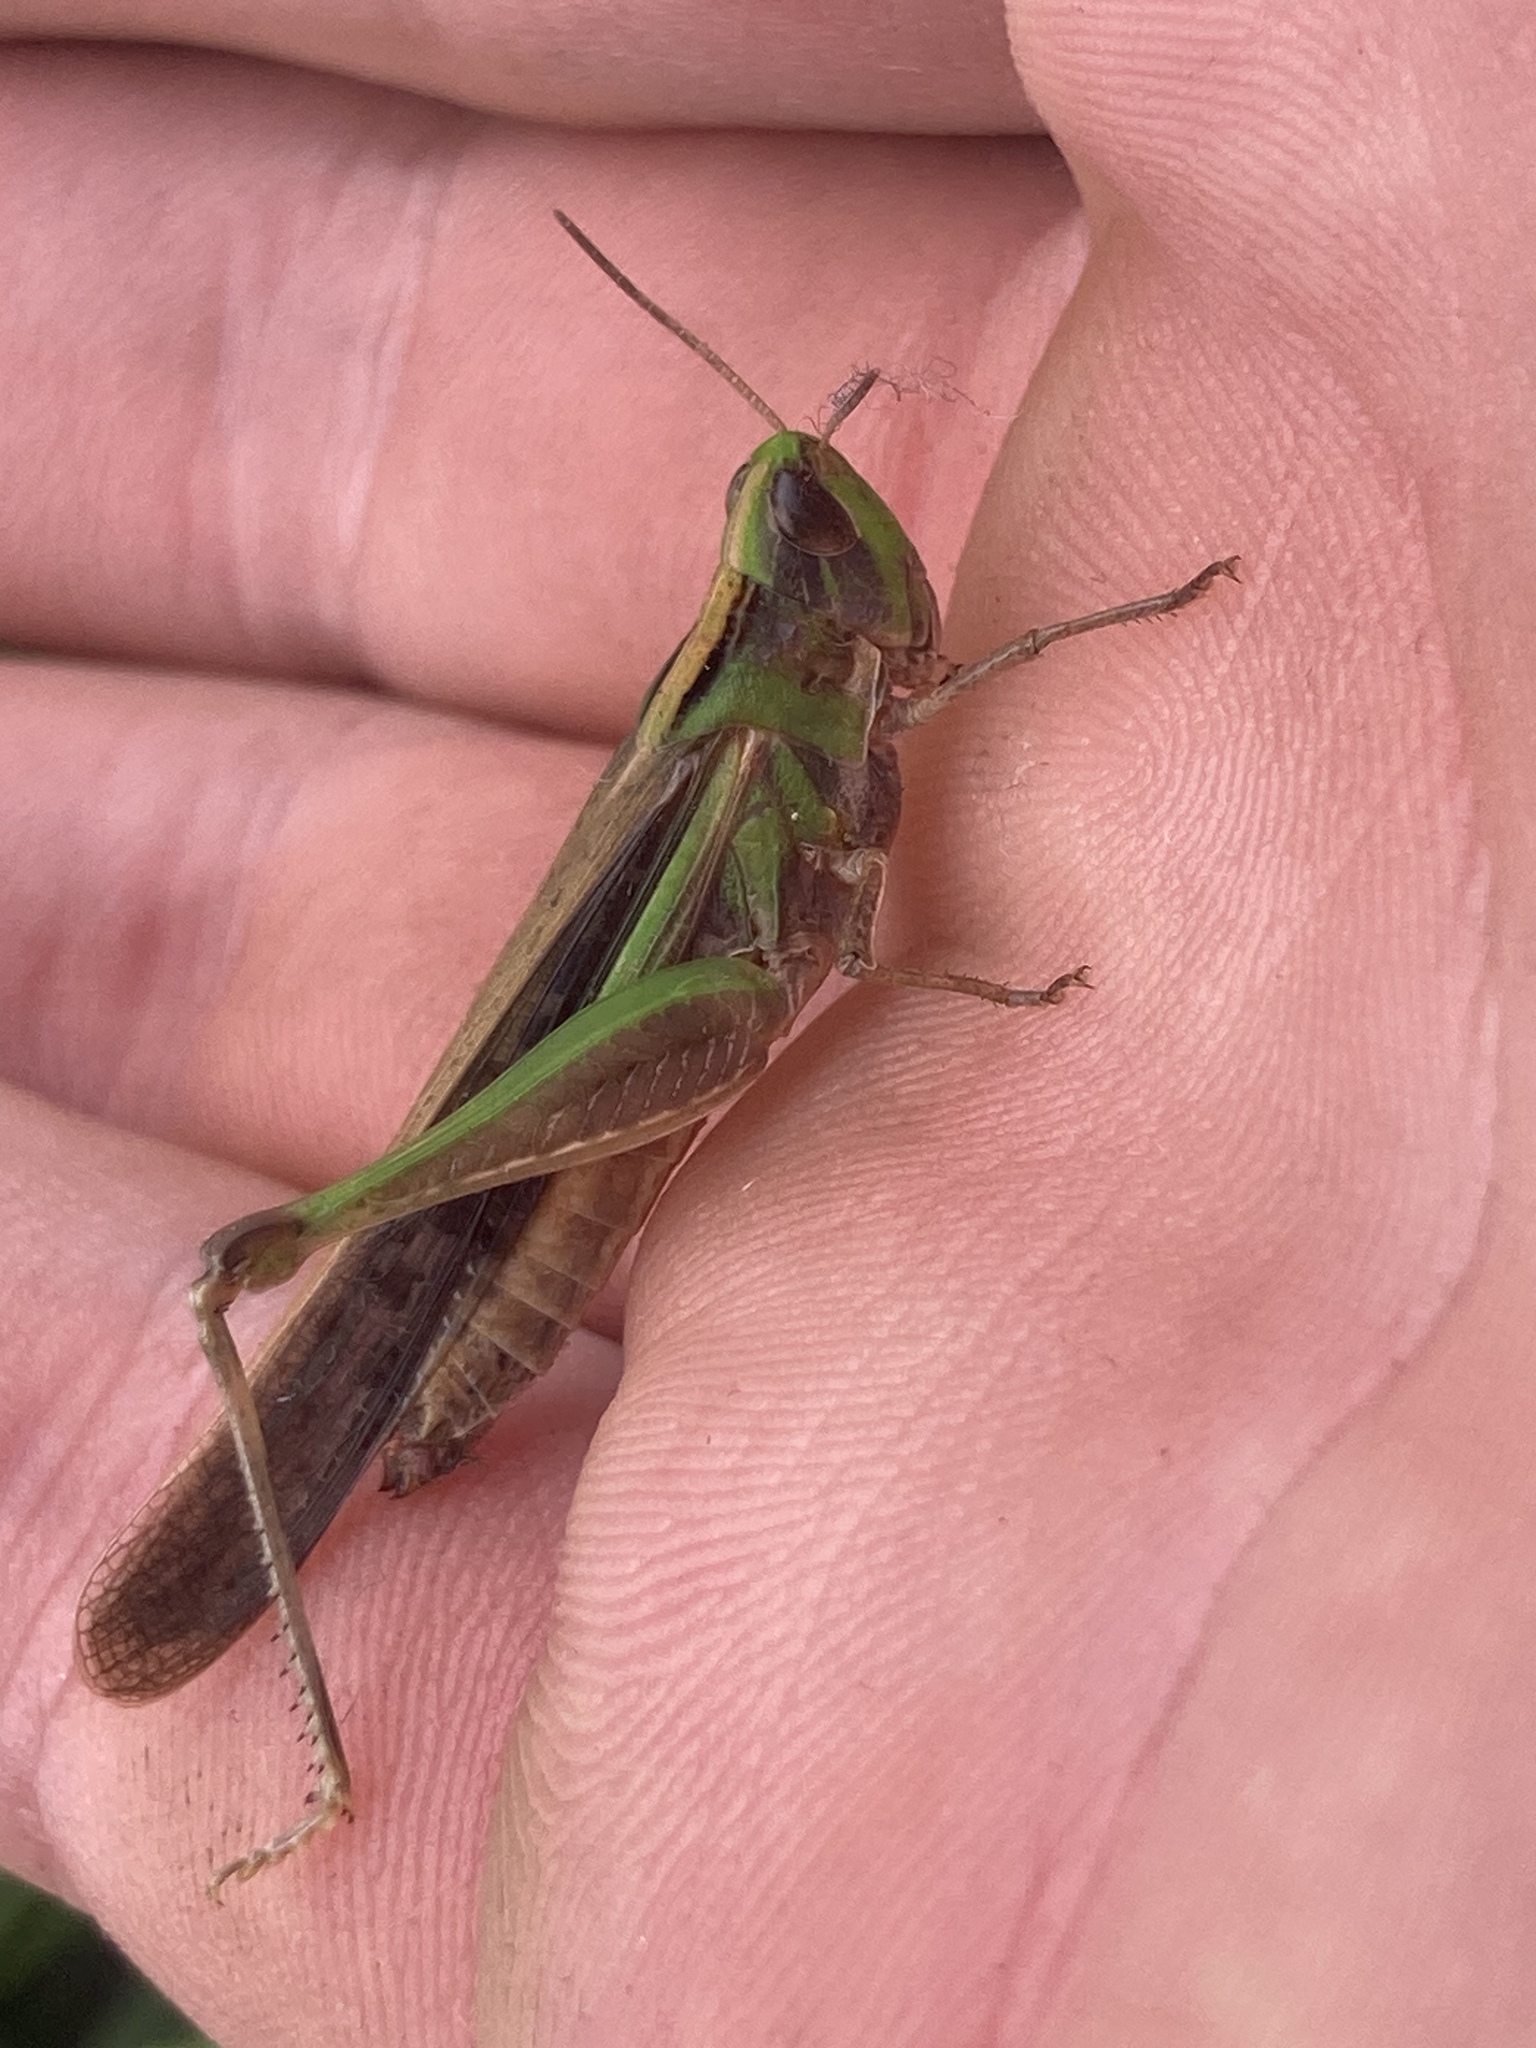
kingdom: Animalia
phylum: Arthropoda
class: Insecta
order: Orthoptera
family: Acrididae
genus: Aiolopus
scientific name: Aiolopus thalassinus
